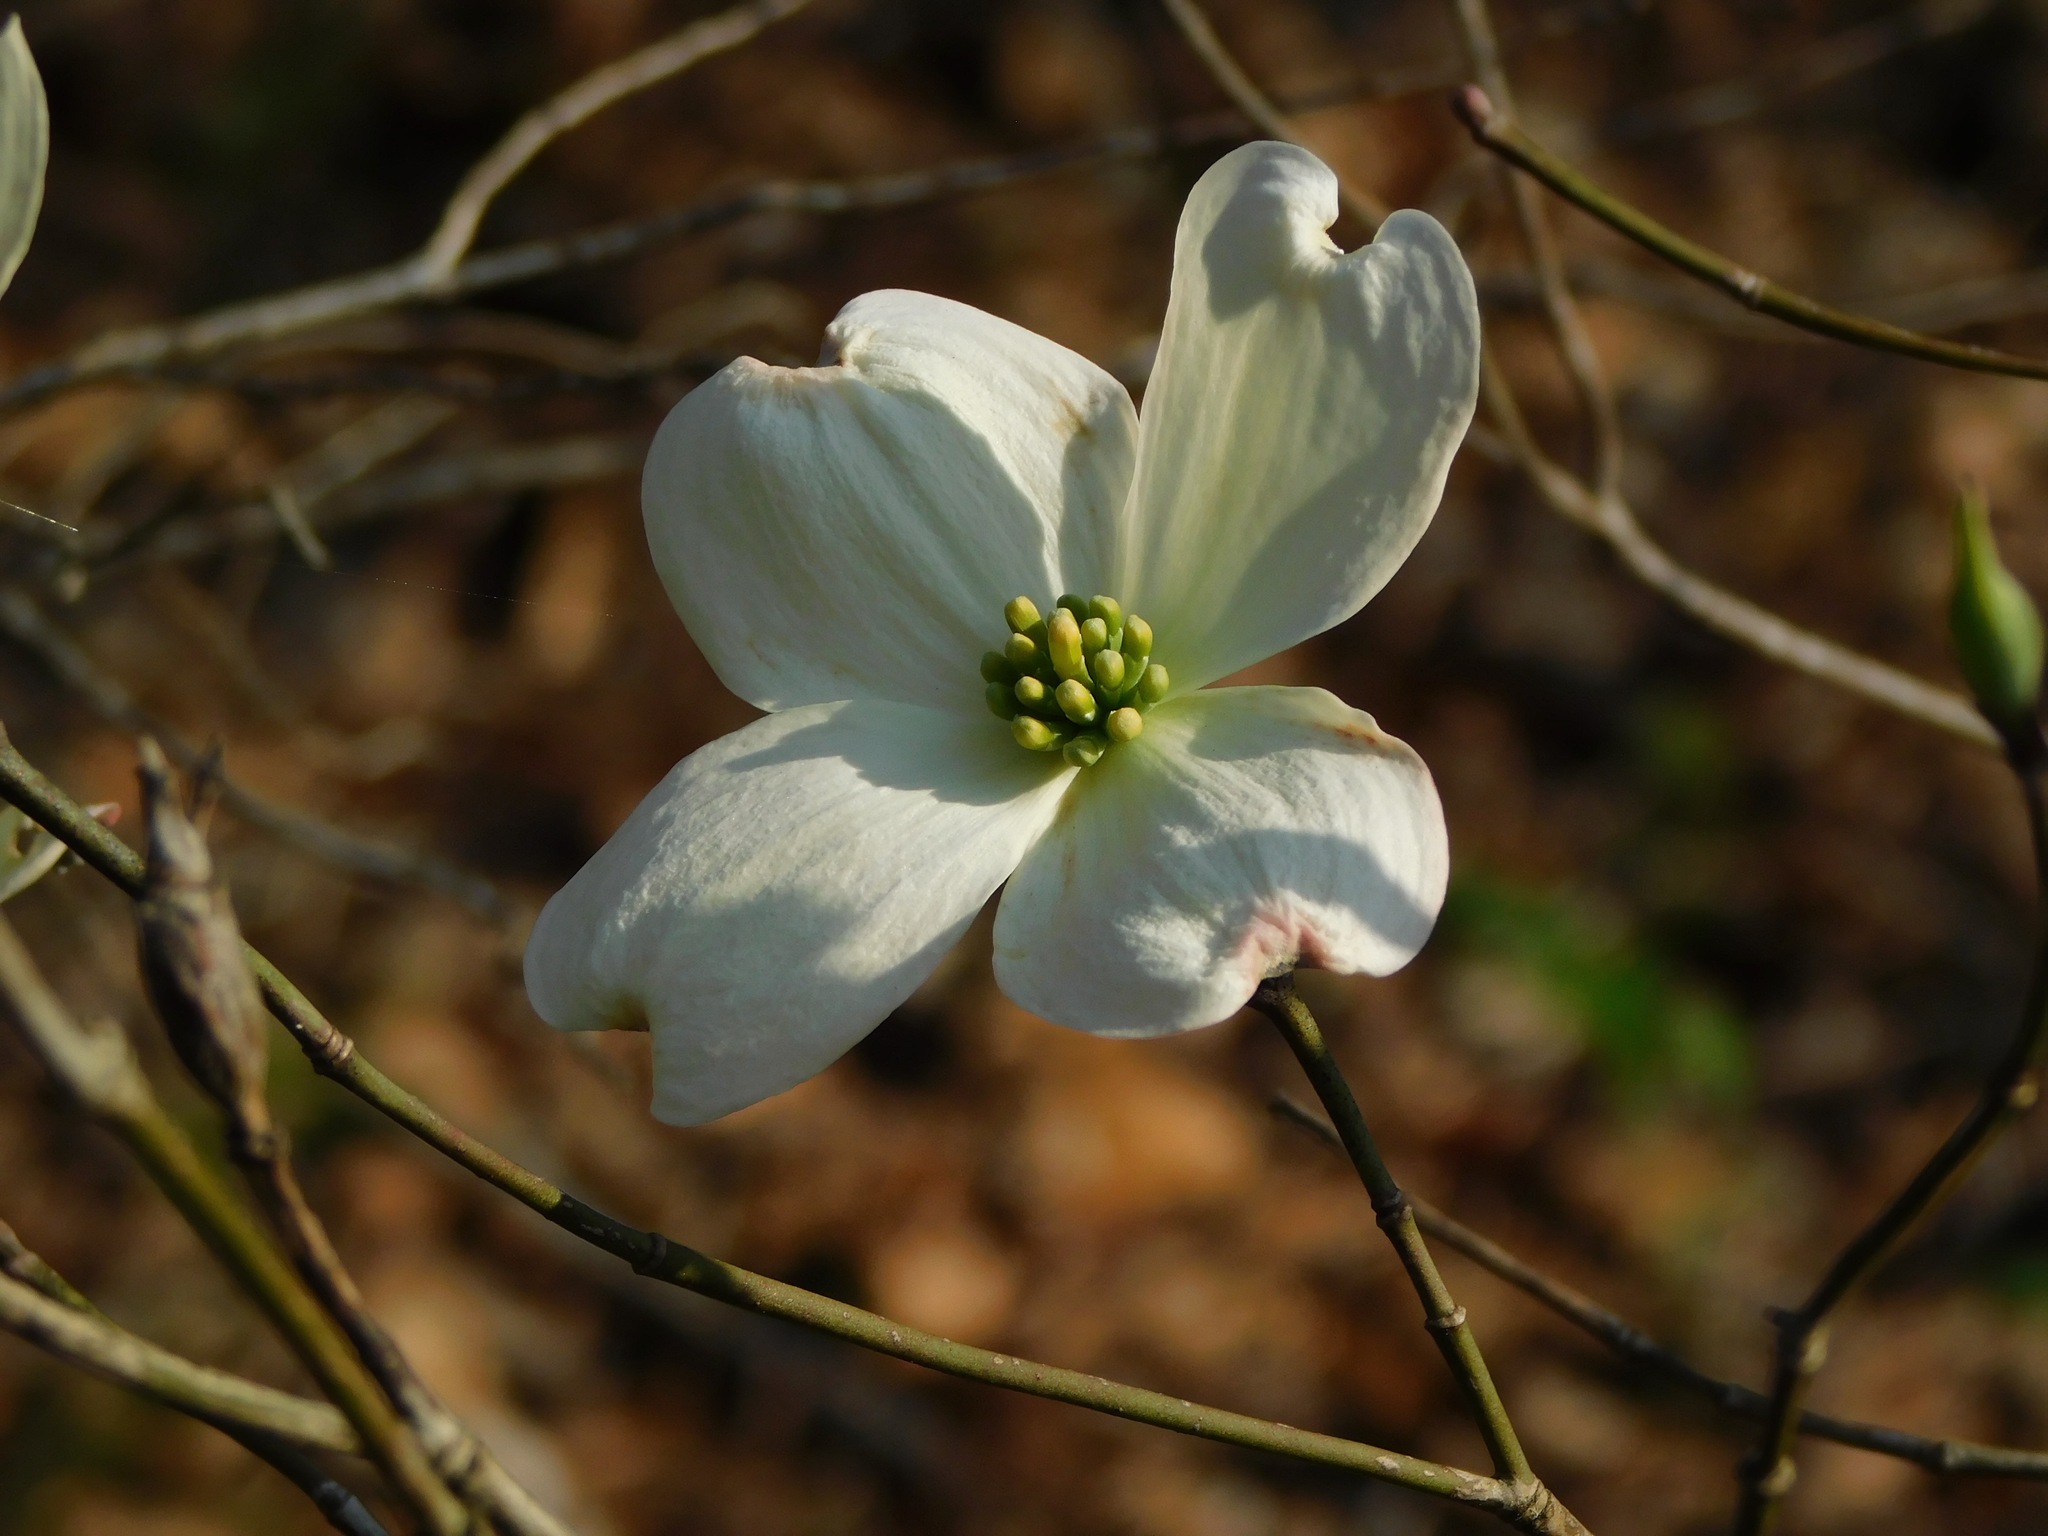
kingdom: Plantae
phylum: Tracheophyta
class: Magnoliopsida
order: Cornales
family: Cornaceae
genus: Cornus
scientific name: Cornus florida
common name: Flowering dogwood
